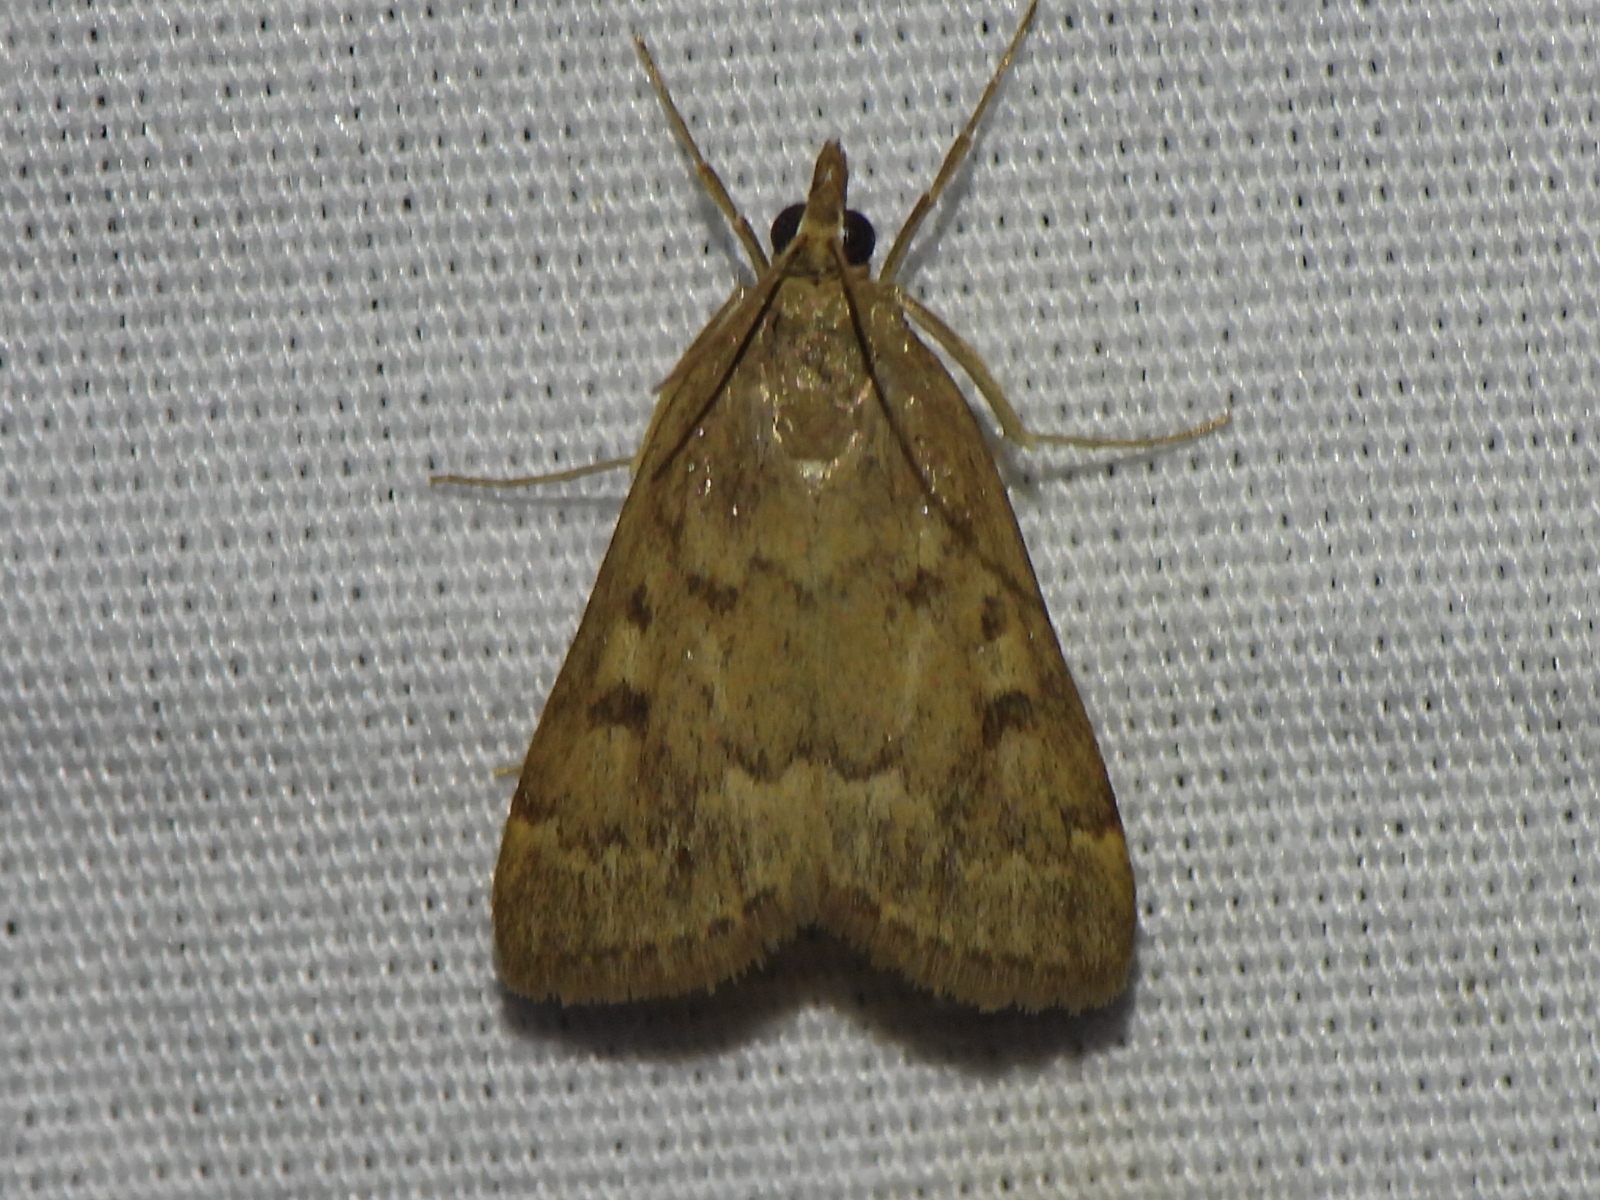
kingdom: Animalia
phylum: Arthropoda
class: Insecta
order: Lepidoptera
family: Crambidae
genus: Achyra
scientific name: Achyra rantalis
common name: Garden webworm
